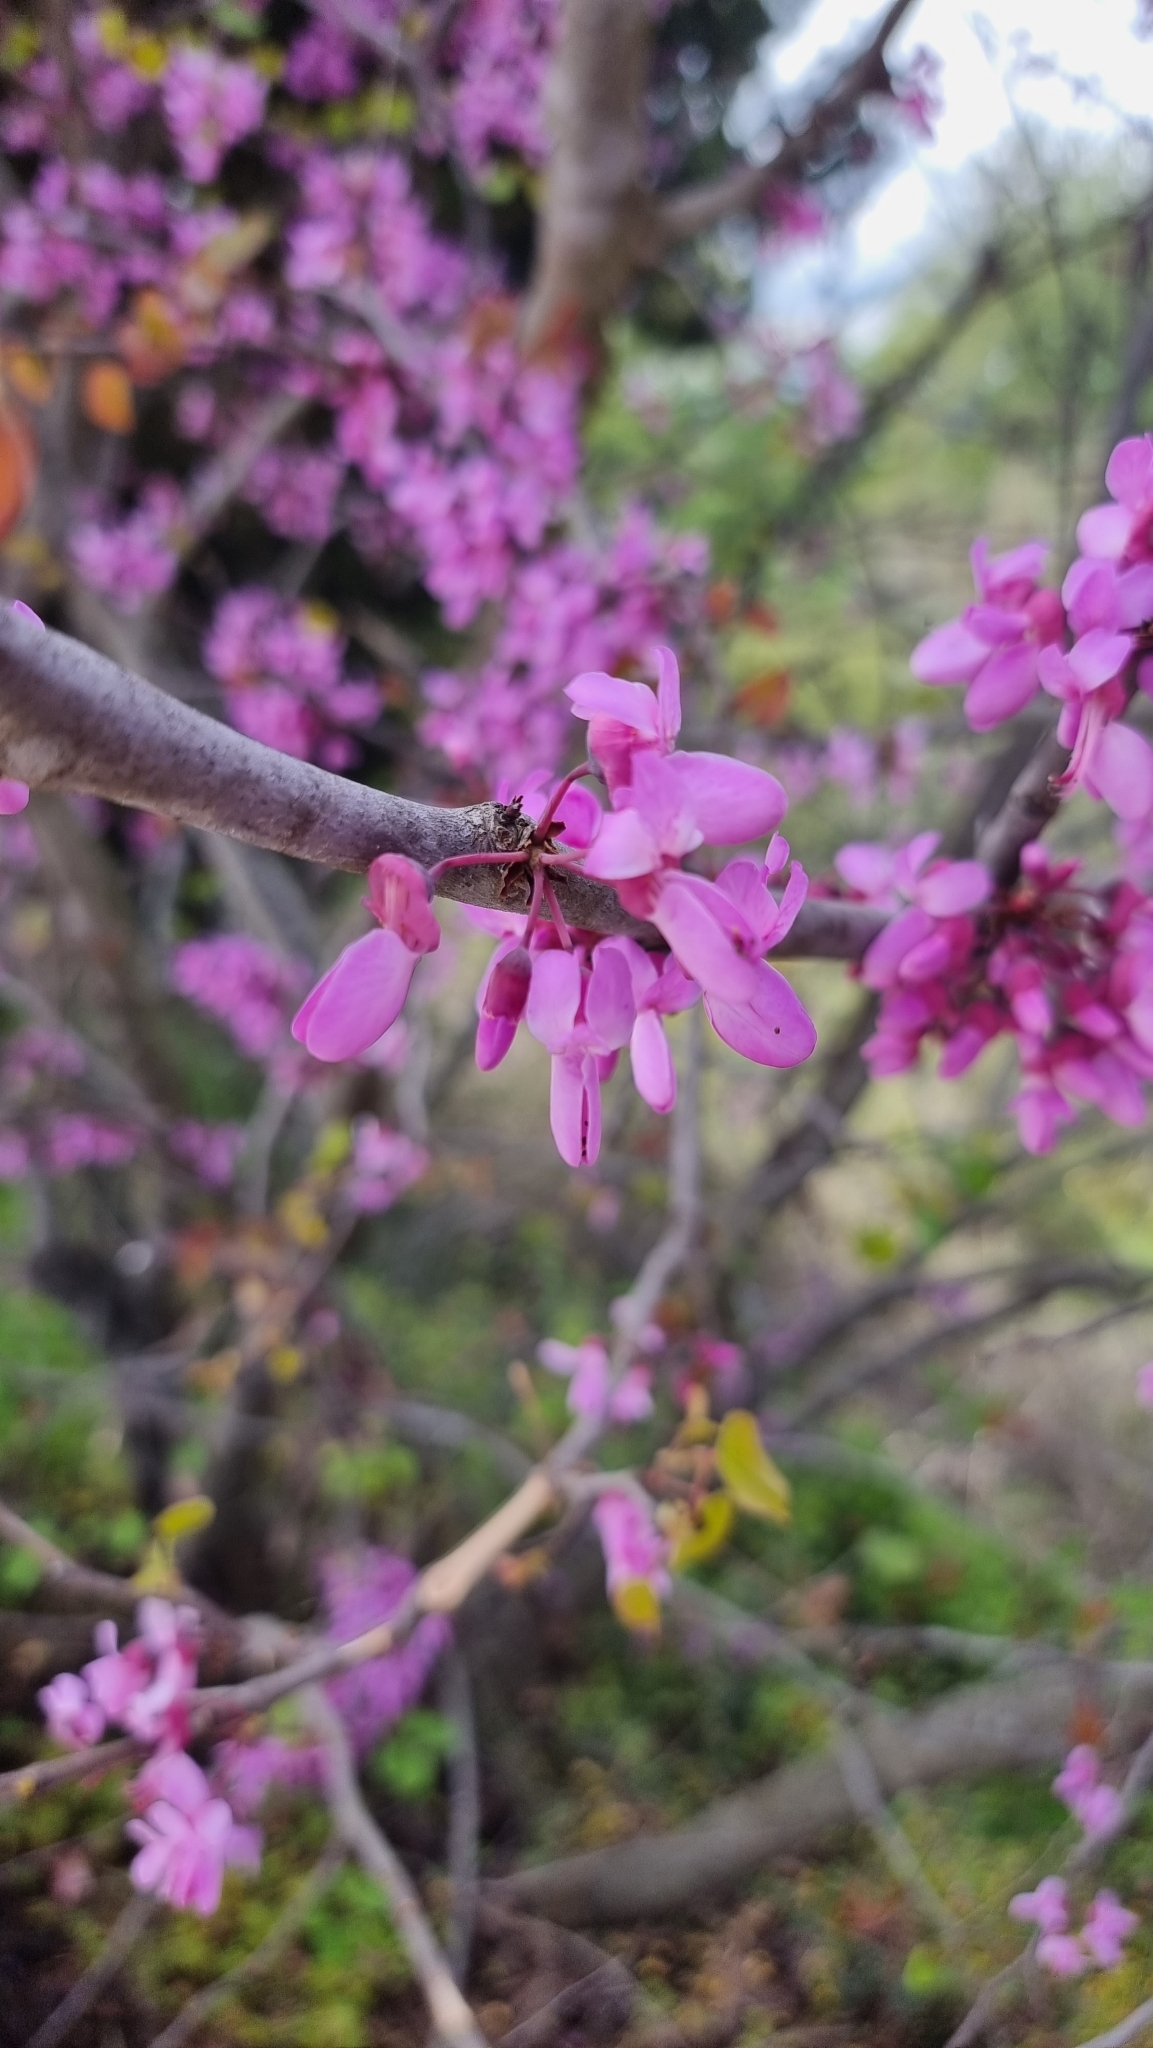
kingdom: Plantae
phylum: Tracheophyta
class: Magnoliopsida
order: Fabales
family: Fabaceae
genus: Cercis
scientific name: Cercis siliquastrum
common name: Judas tree
